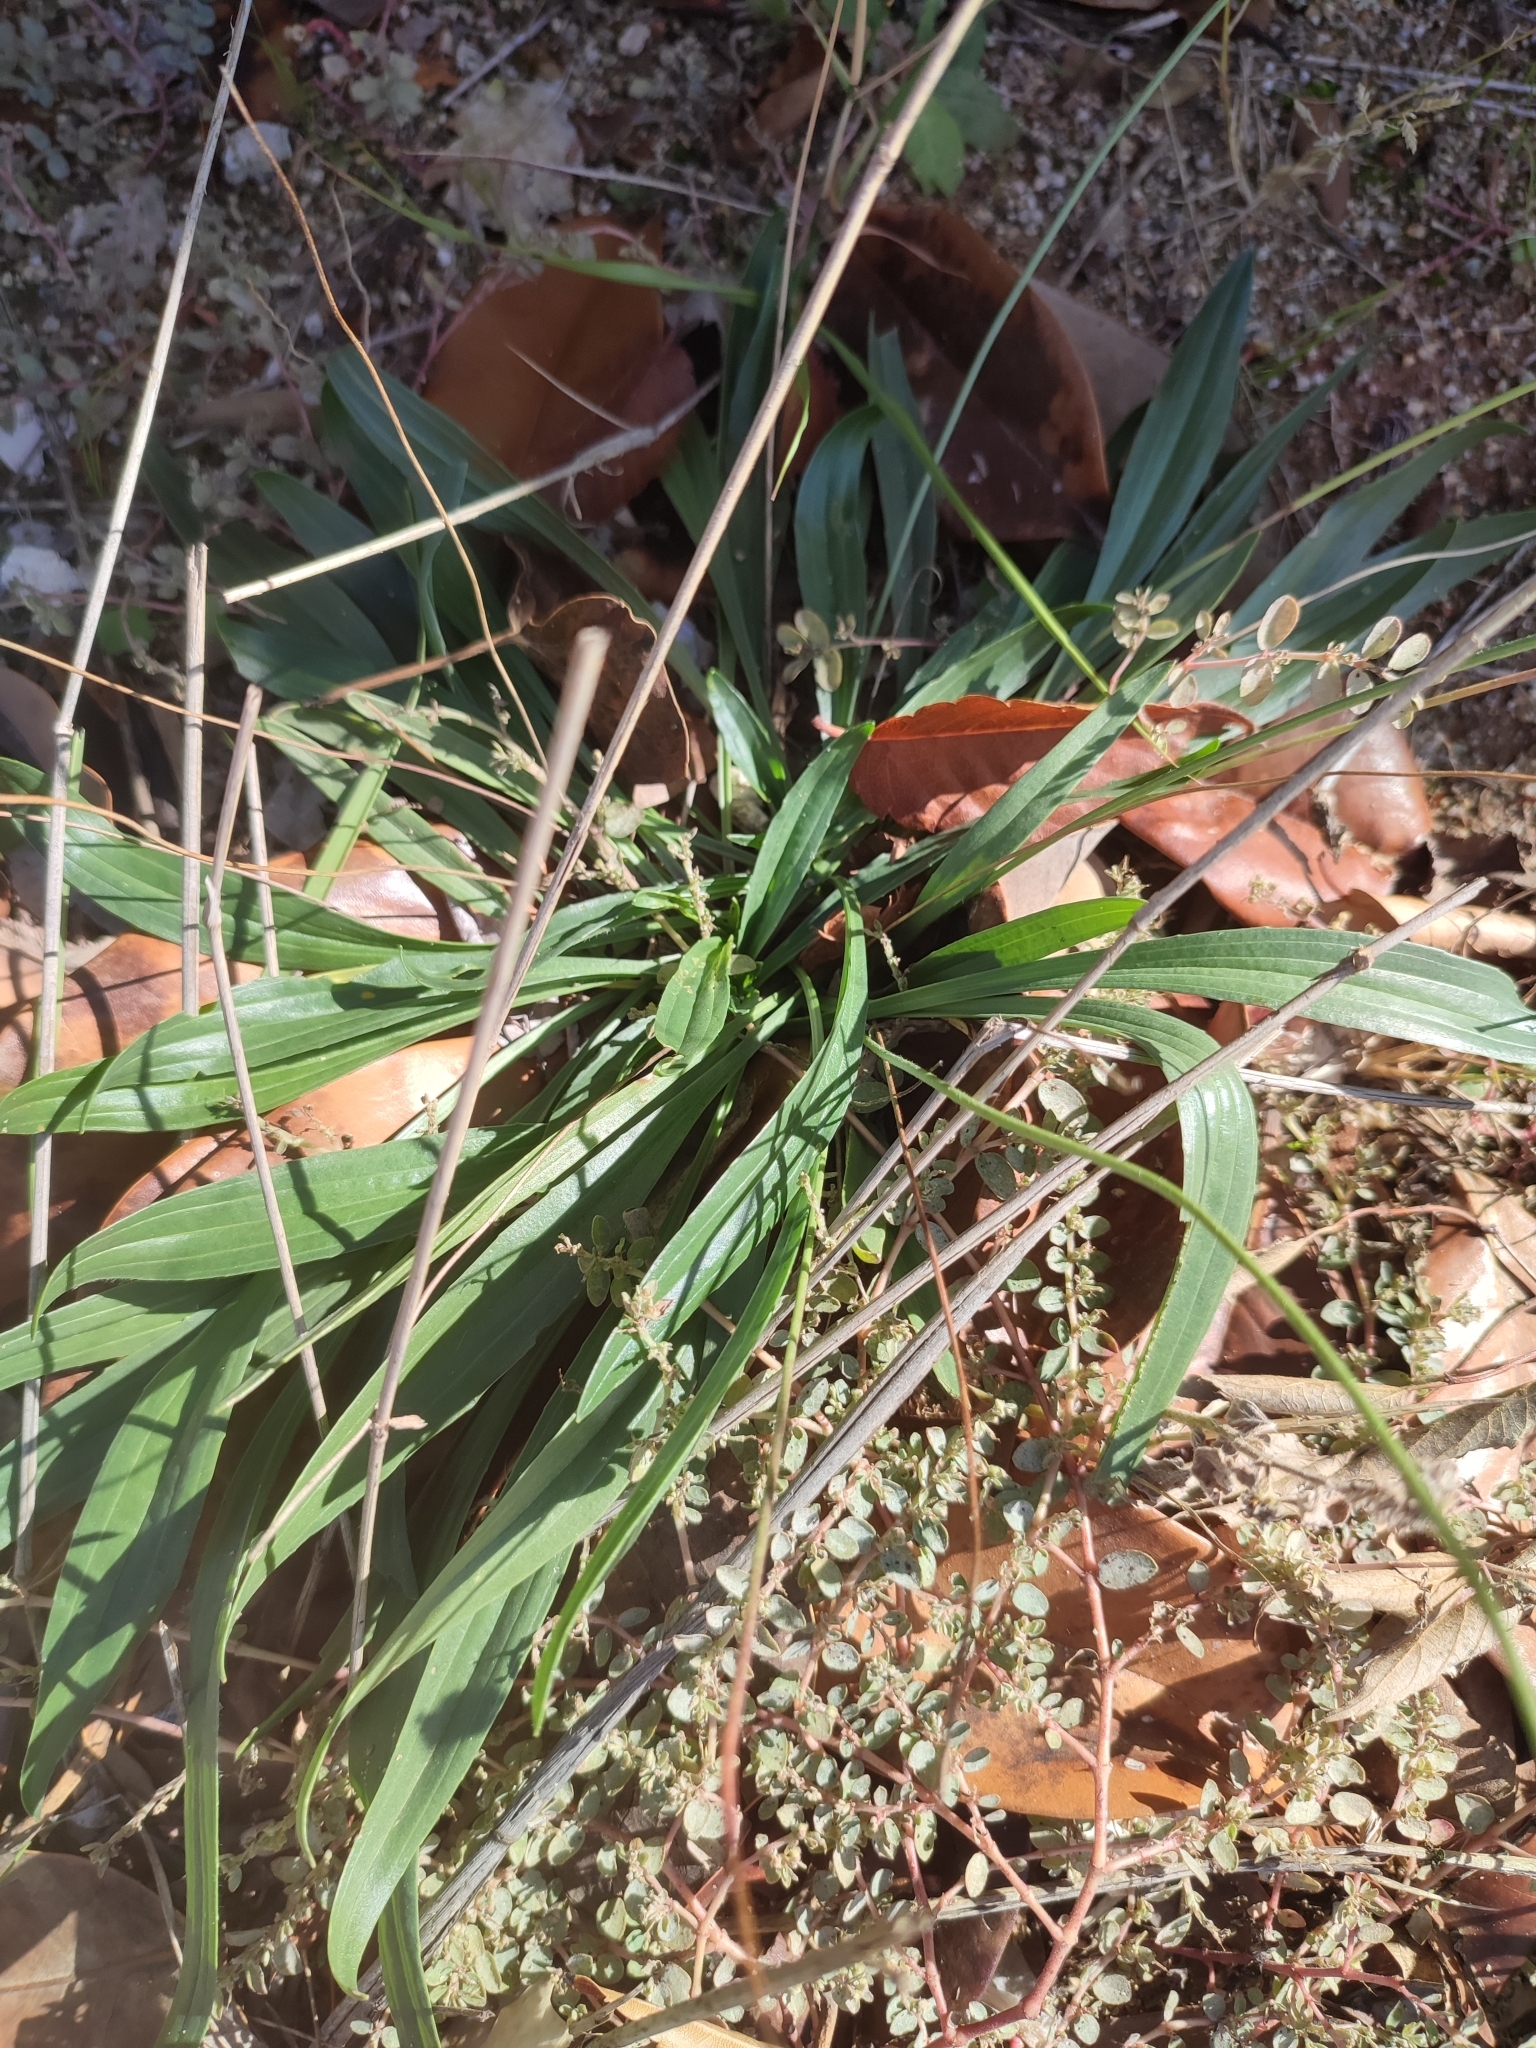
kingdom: Plantae
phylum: Tracheophyta
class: Magnoliopsida
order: Lamiales
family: Plantaginaceae
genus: Plantago
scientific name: Plantago lanceolata
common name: Ribwort plantain
